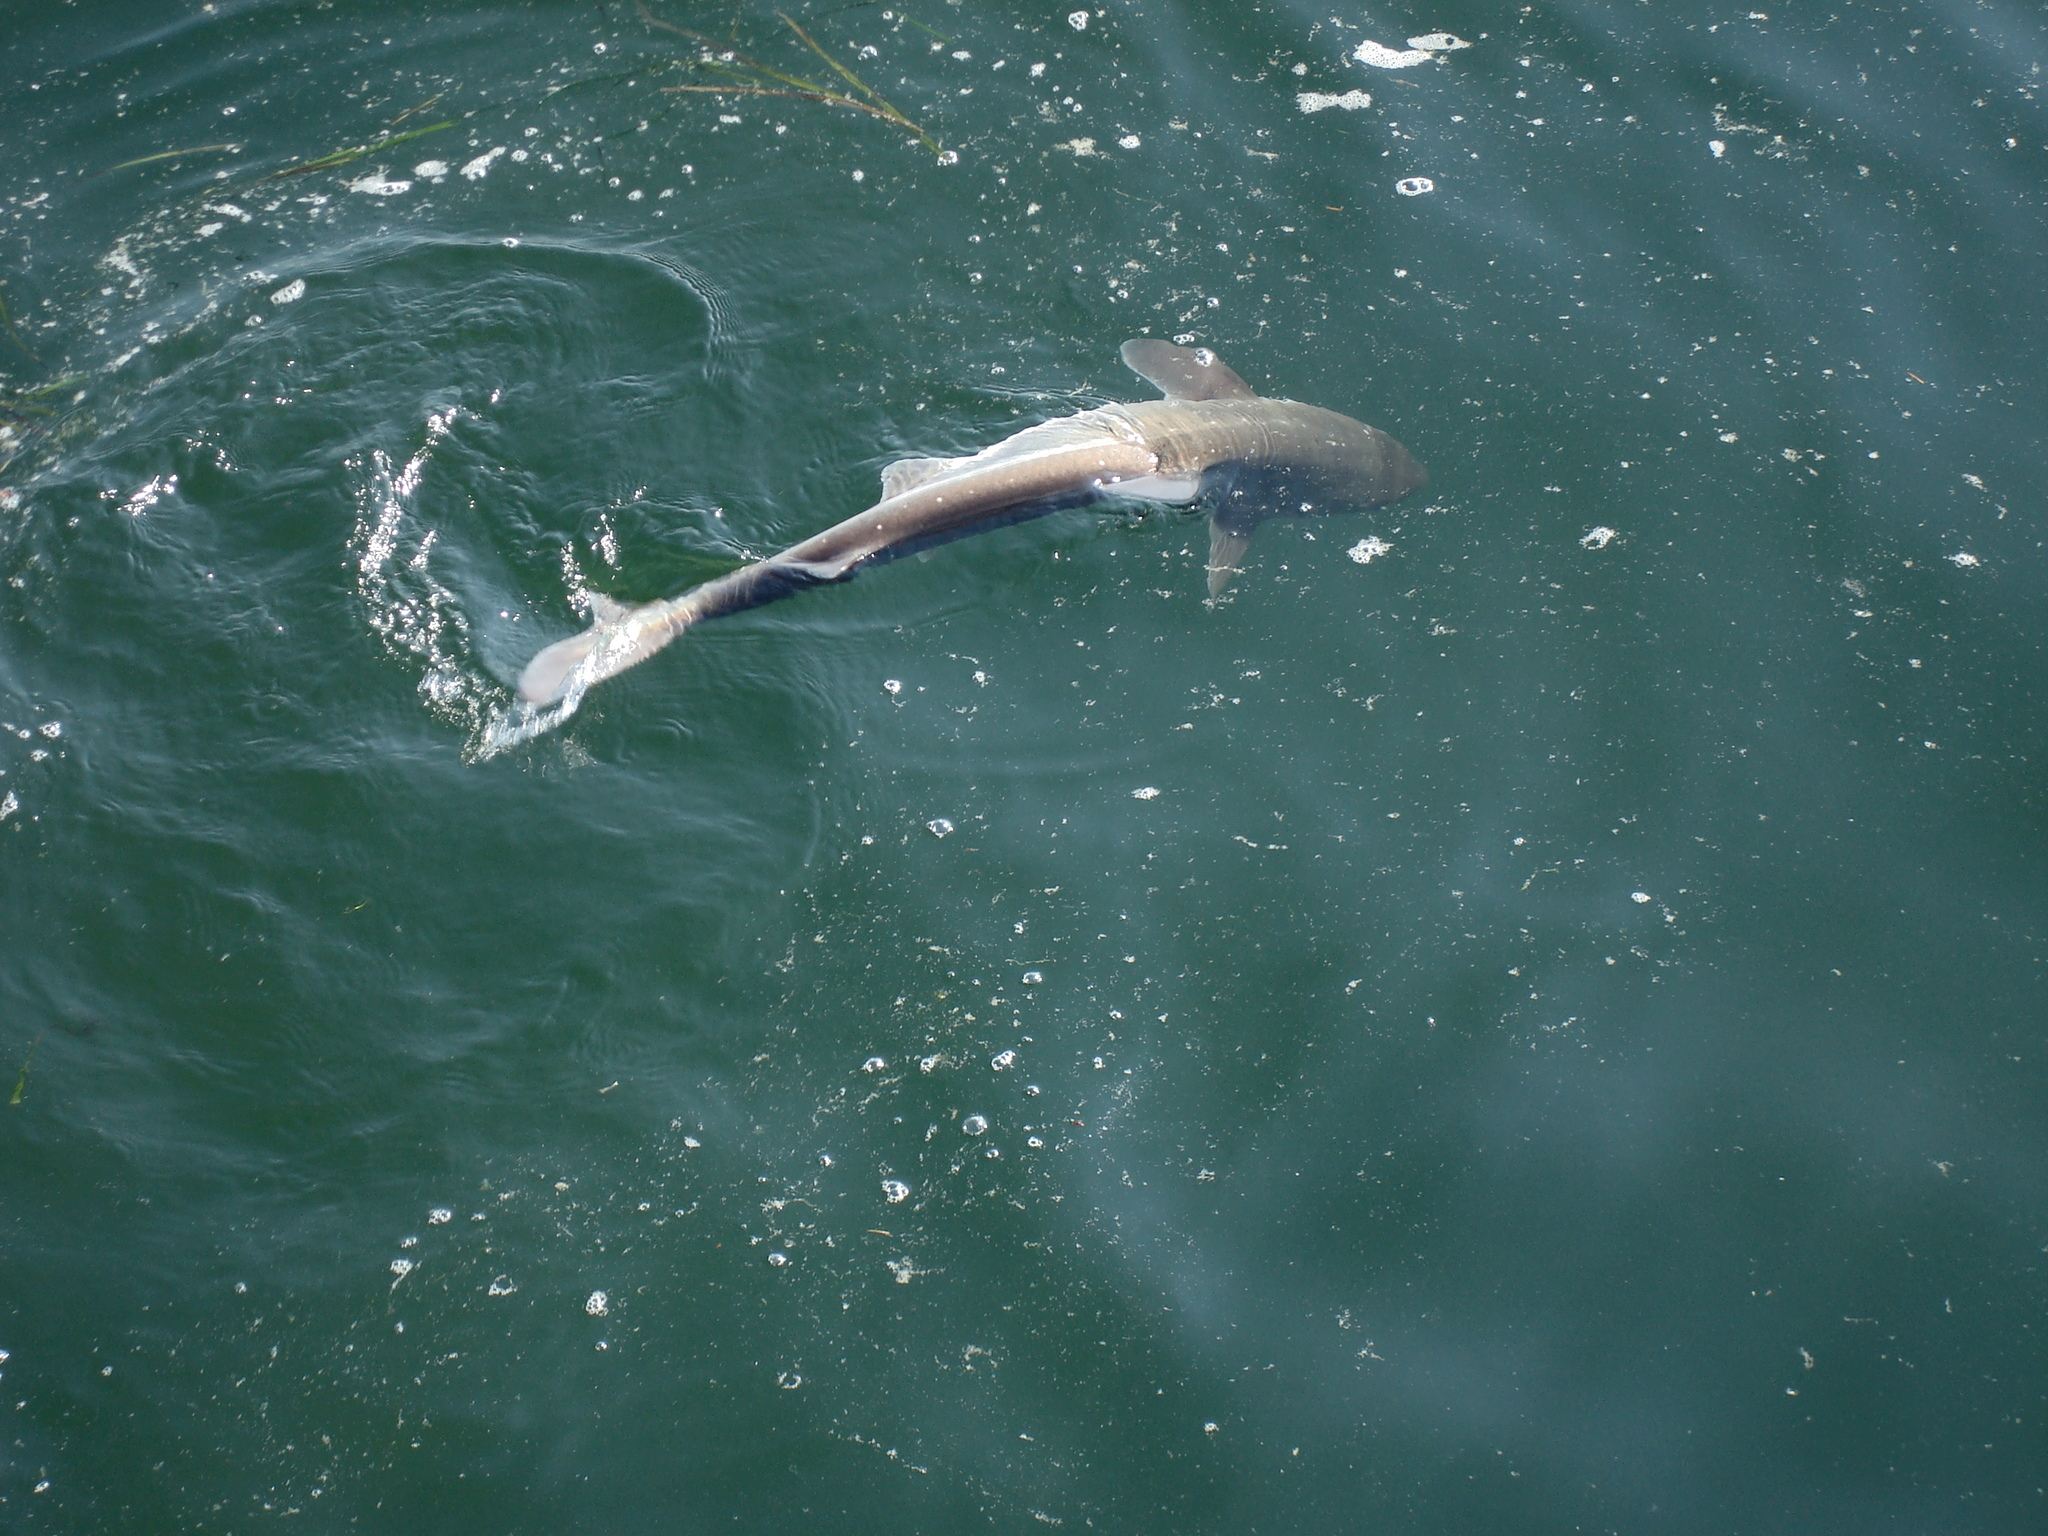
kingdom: Animalia
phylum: Chordata
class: Elasmobranchii
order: Squaliformes
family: Squalidae
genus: Squalus
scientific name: Squalus suckleyi
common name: Spiny dogfish
